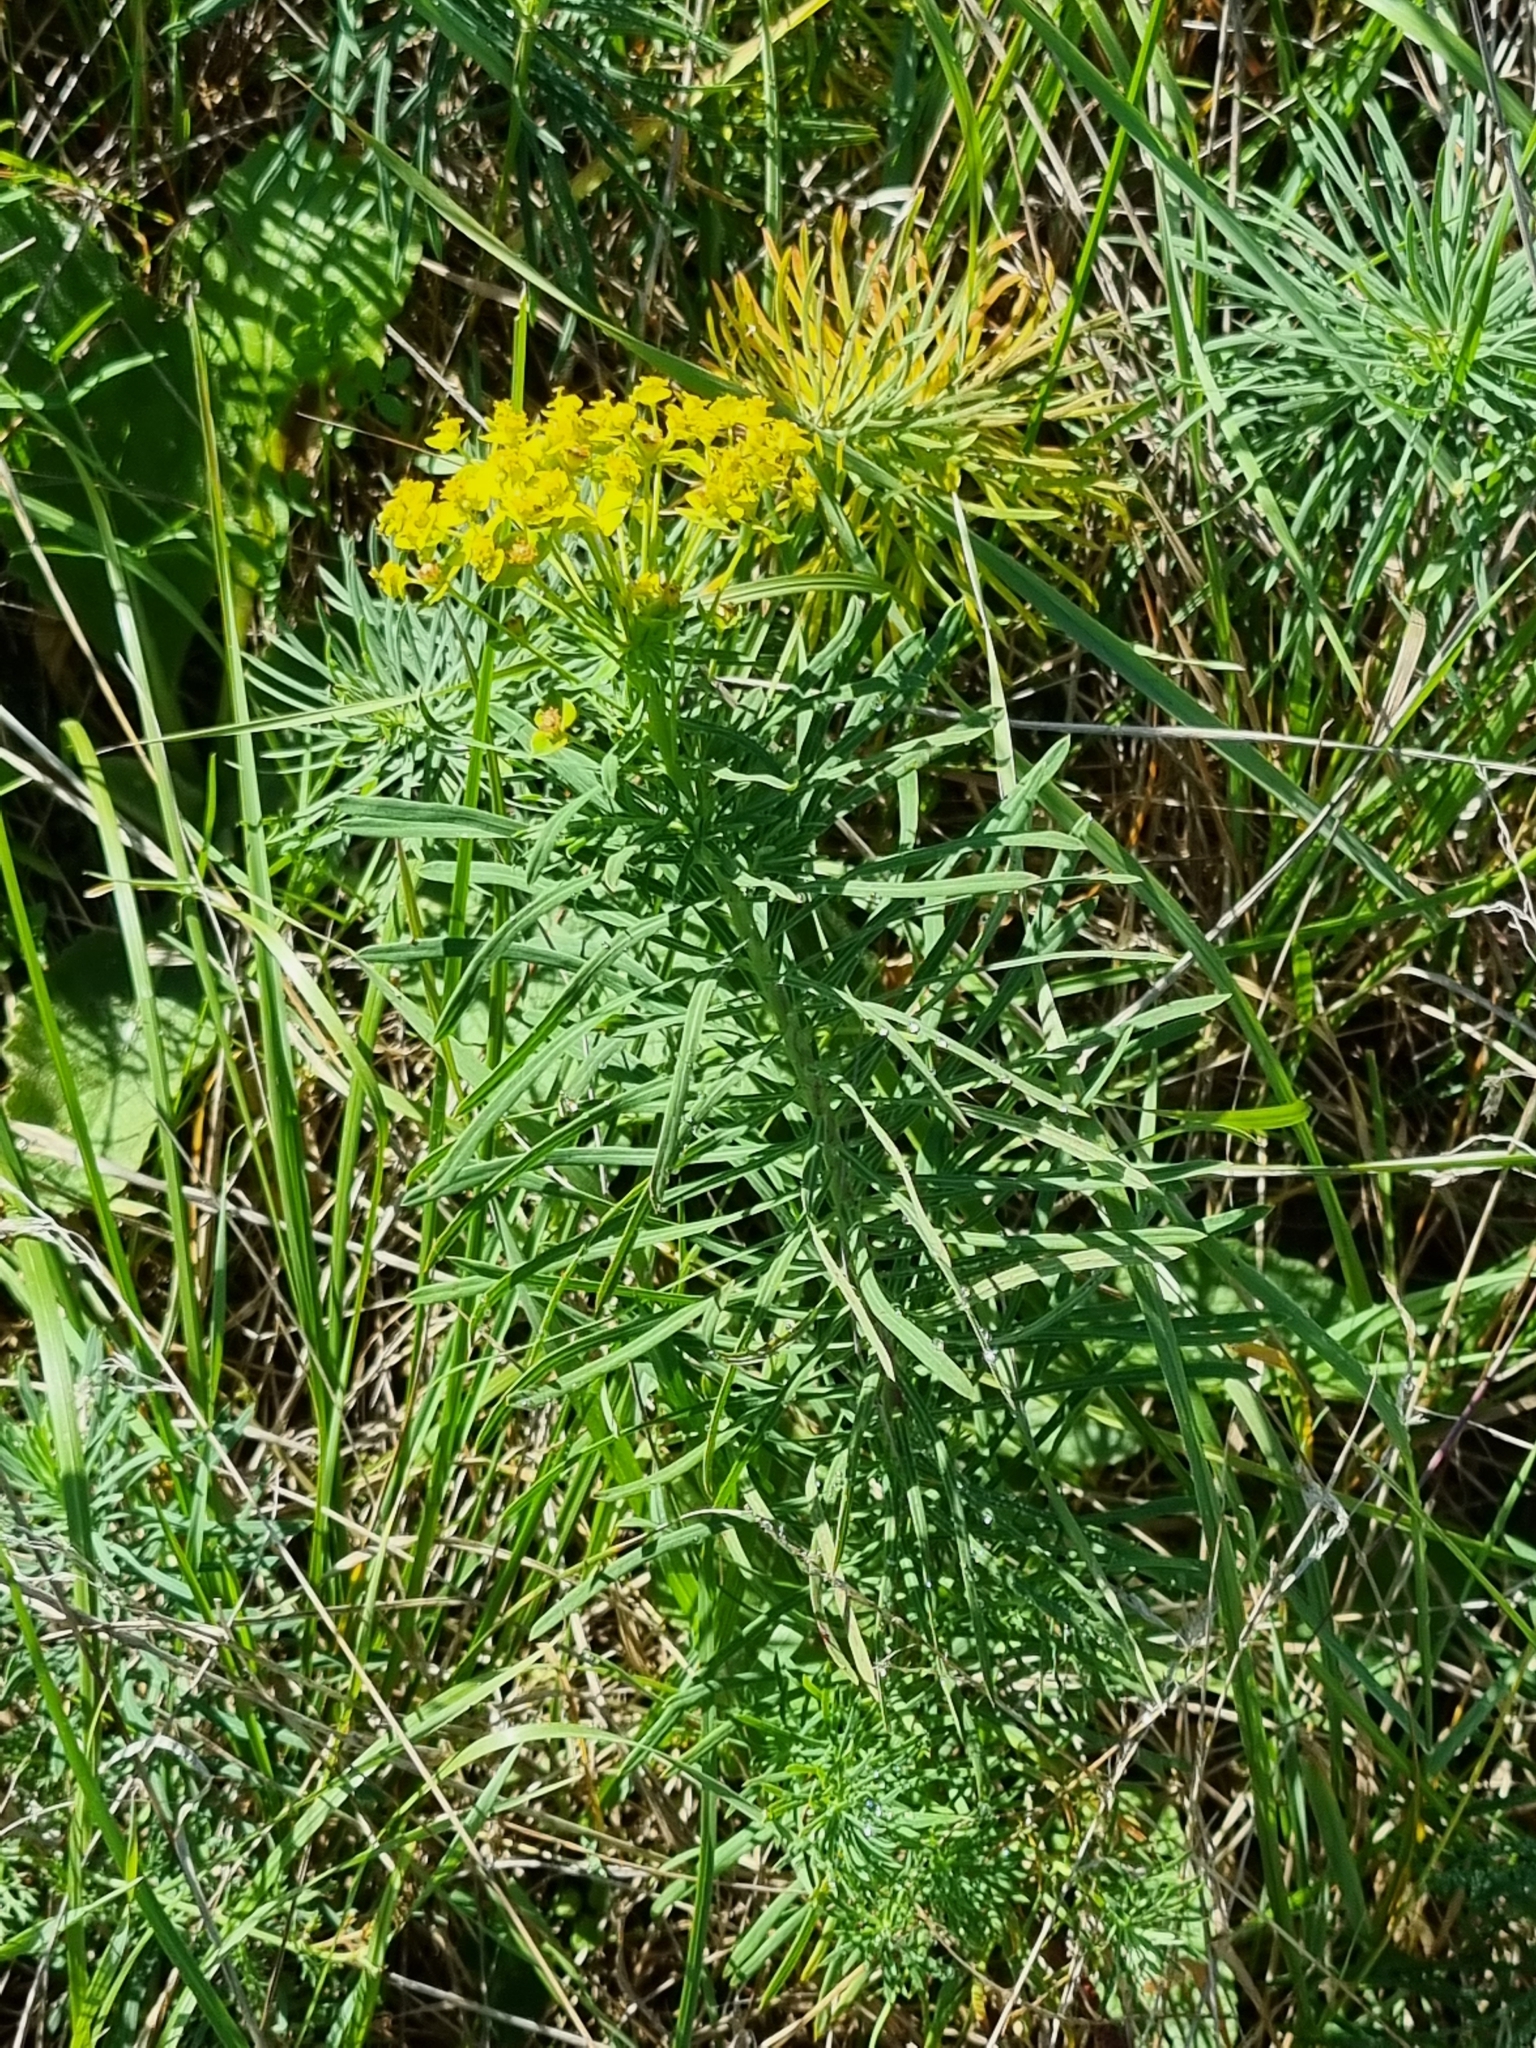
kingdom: Plantae
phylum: Tracheophyta
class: Magnoliopsida
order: Malpighiales
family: Euphorbiaceae
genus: Euphorbia
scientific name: Euphorbia cyparissias
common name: Cypress spurge
